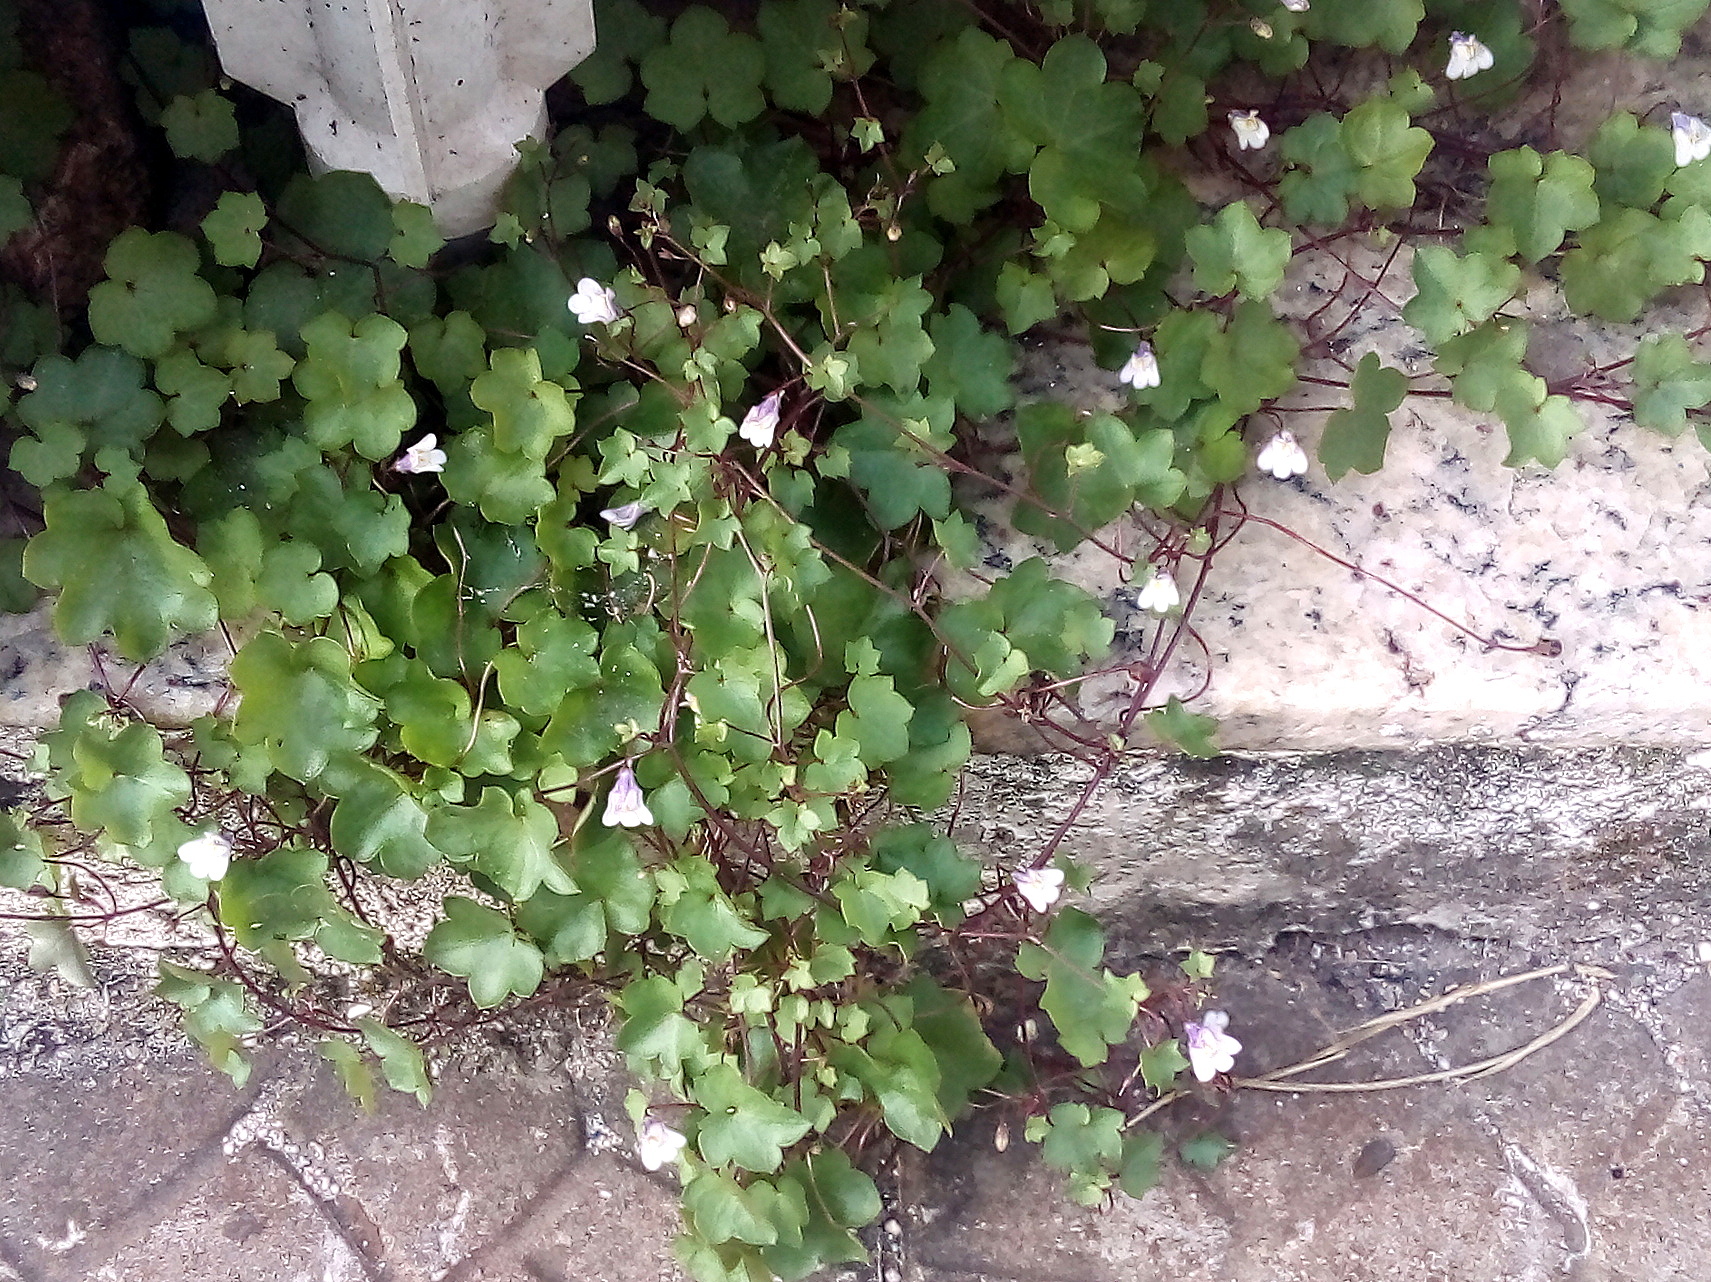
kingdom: Plantae
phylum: Tracheophyta
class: Magnoliopsida
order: Lamiales
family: Plantaginaceae
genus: Cymbalaria
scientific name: Cymbalaria muralis
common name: Ivy-leaved toadflax
